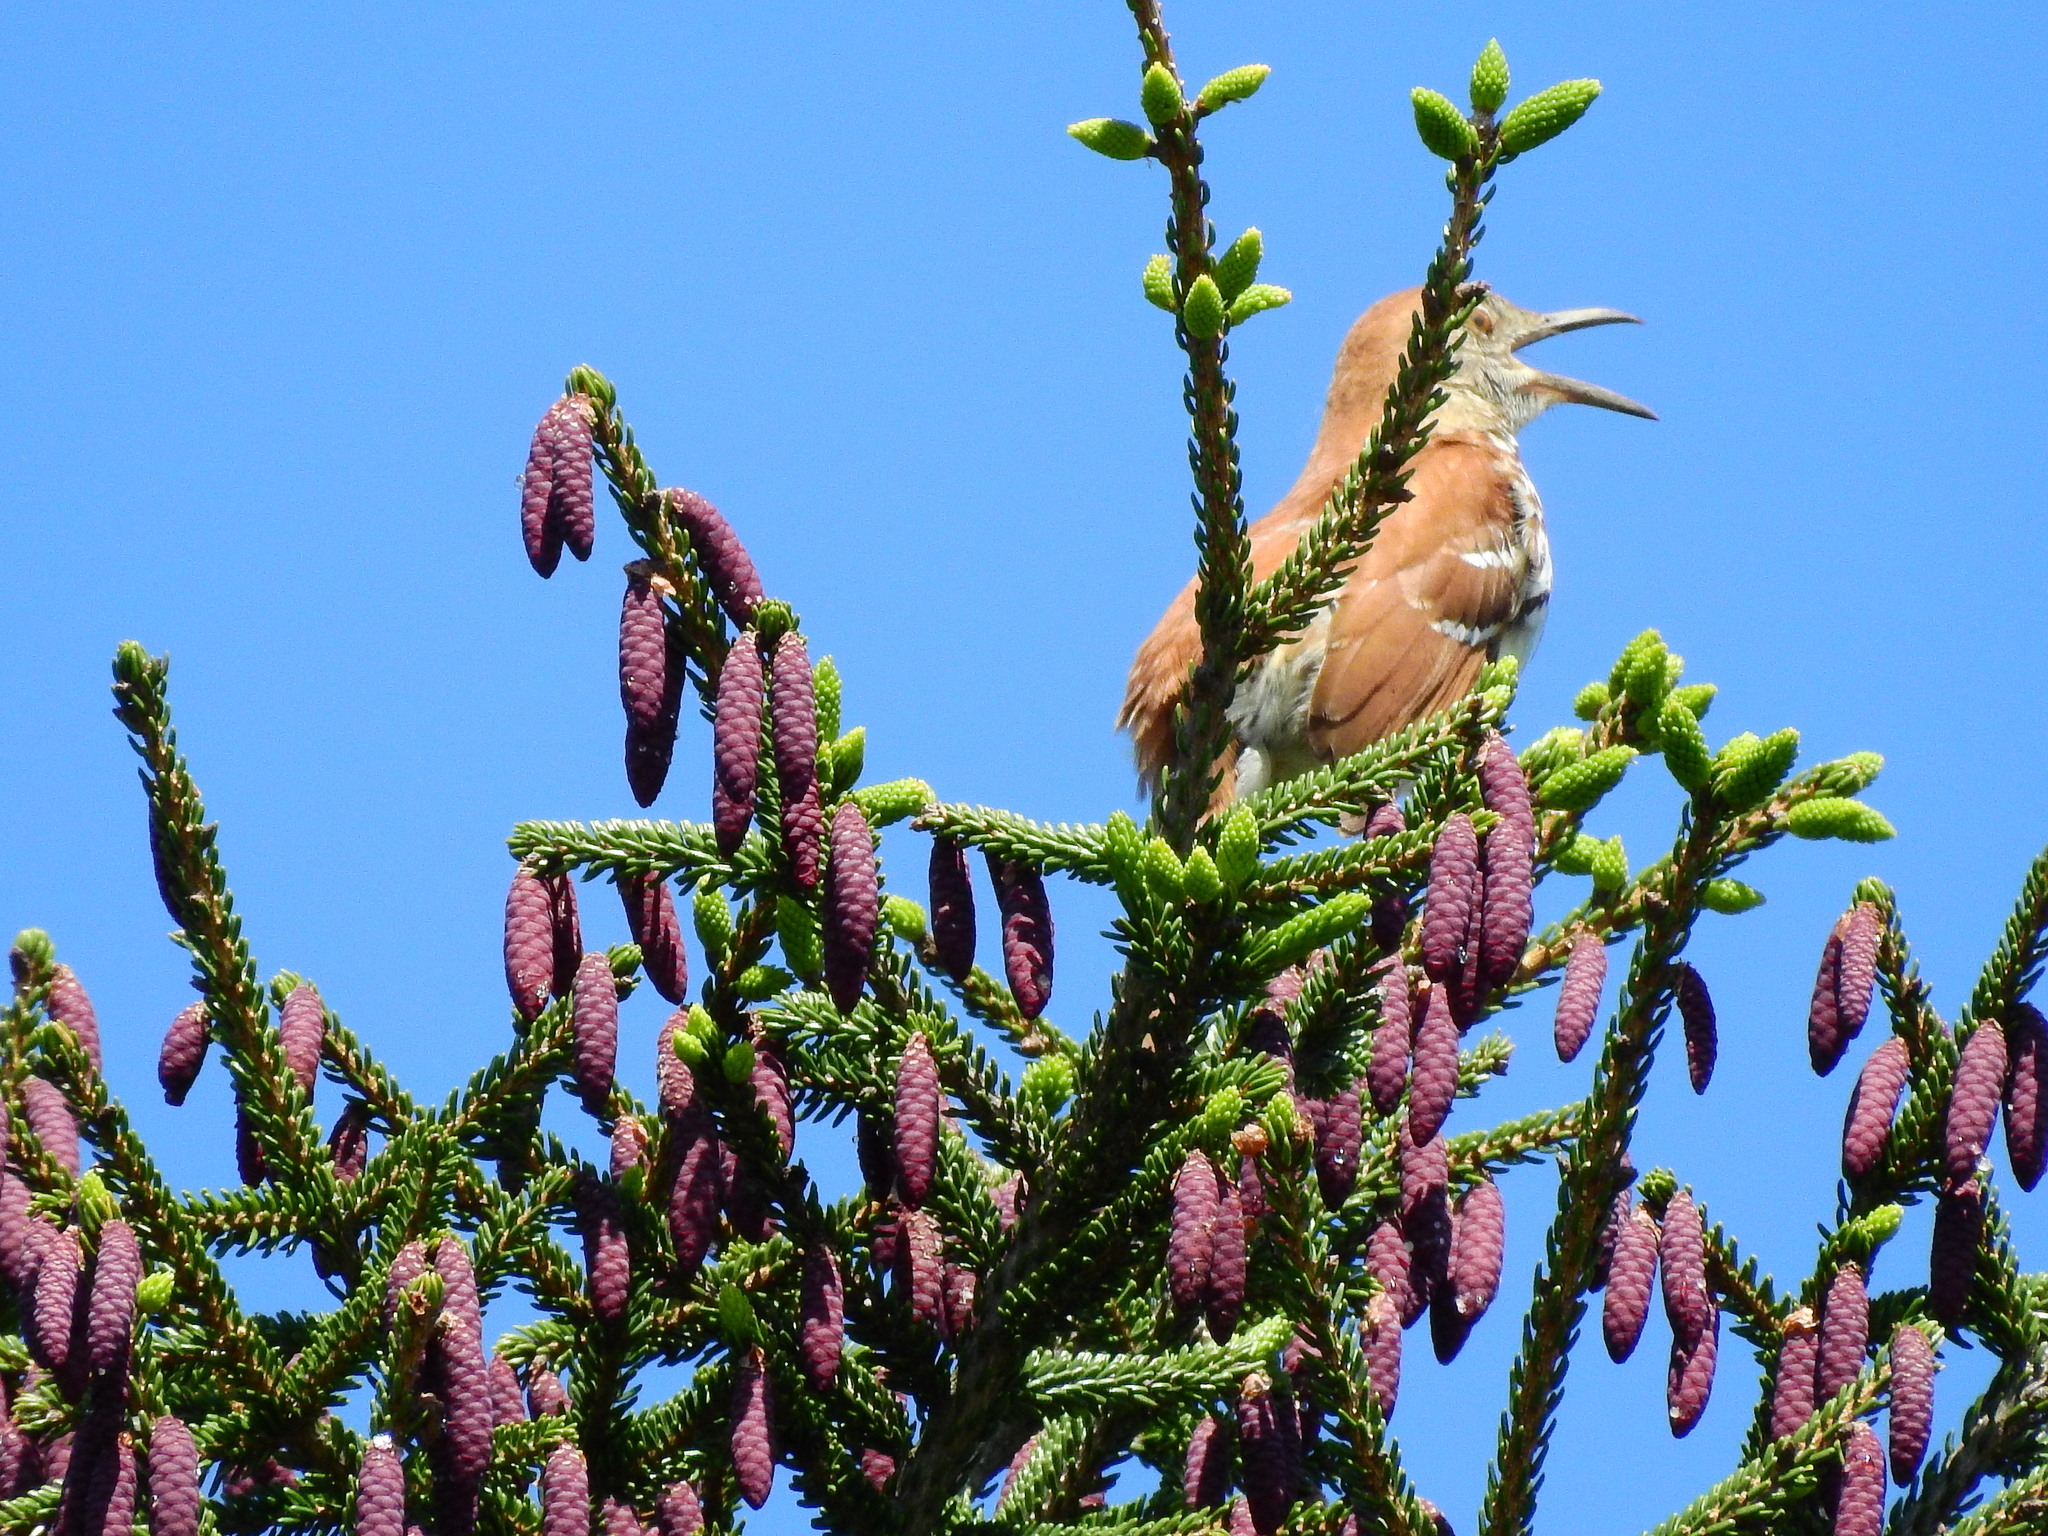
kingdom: Animalia
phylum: Chordata
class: Aves
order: Passeriformes
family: Mimidae
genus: Toxostoma
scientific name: Toxostoma rufum
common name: Brown thrasher
